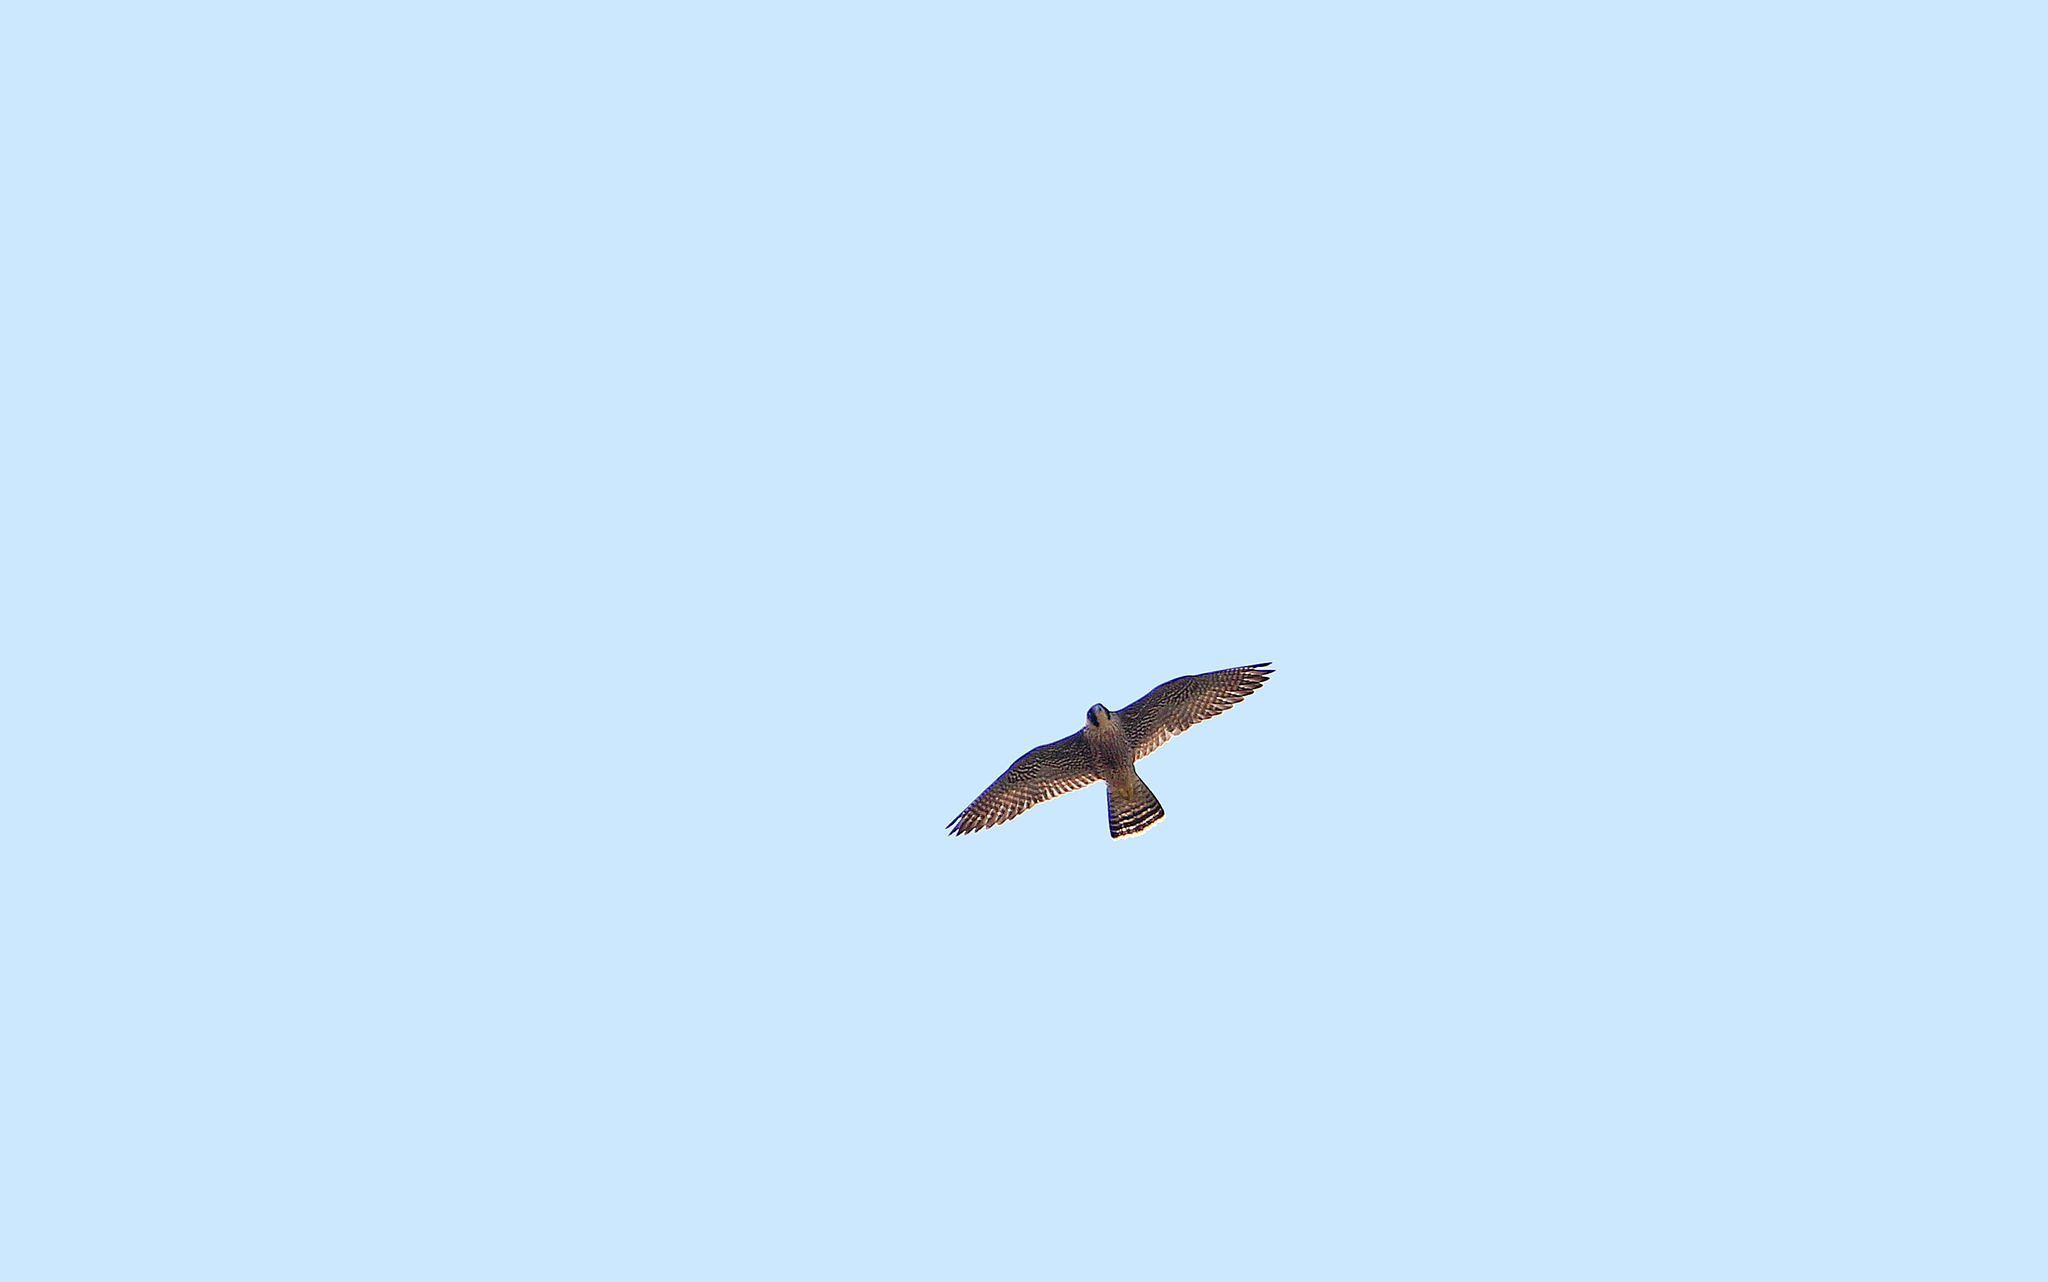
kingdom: Animalia
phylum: Chordata
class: Aves
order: Falconiformes
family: Falconidae
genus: Falco
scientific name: Falco peregrinus
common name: Peregrine falcon
